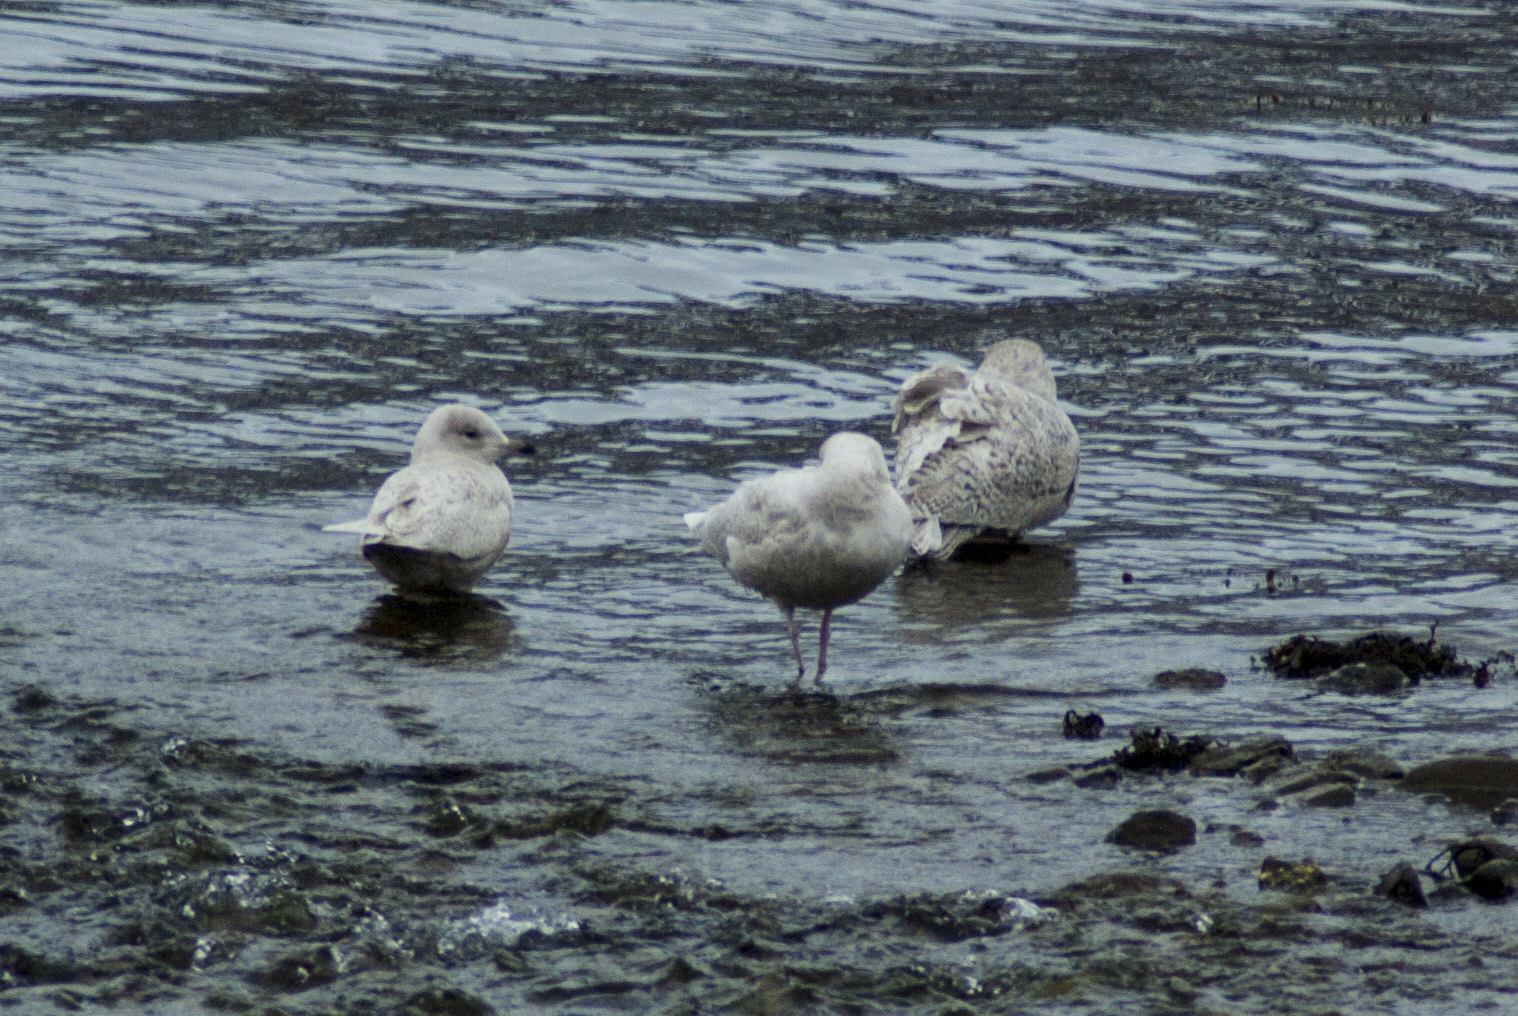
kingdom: Animalia
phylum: Chordata
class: Aves
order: Charadriiformes
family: Laridae
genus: Larus
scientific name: Larus glaucoides
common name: Iceland gull
